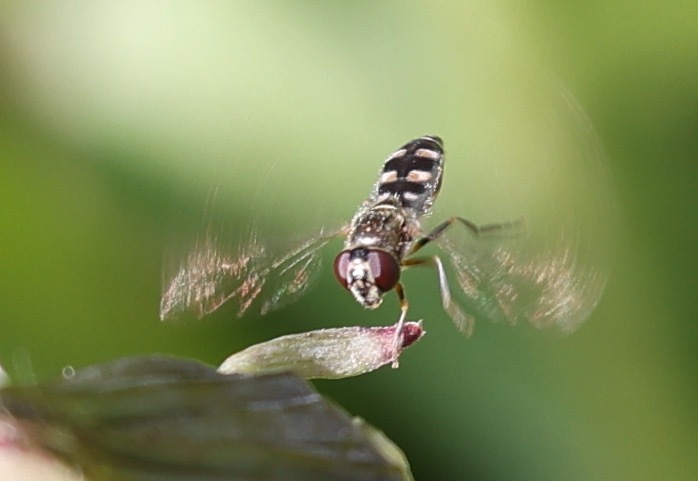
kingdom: Animalia
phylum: Arthropoda
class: Insecta
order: Diptera
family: Syrphidae
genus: Platycheirus
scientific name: Platycheirus albimanus
